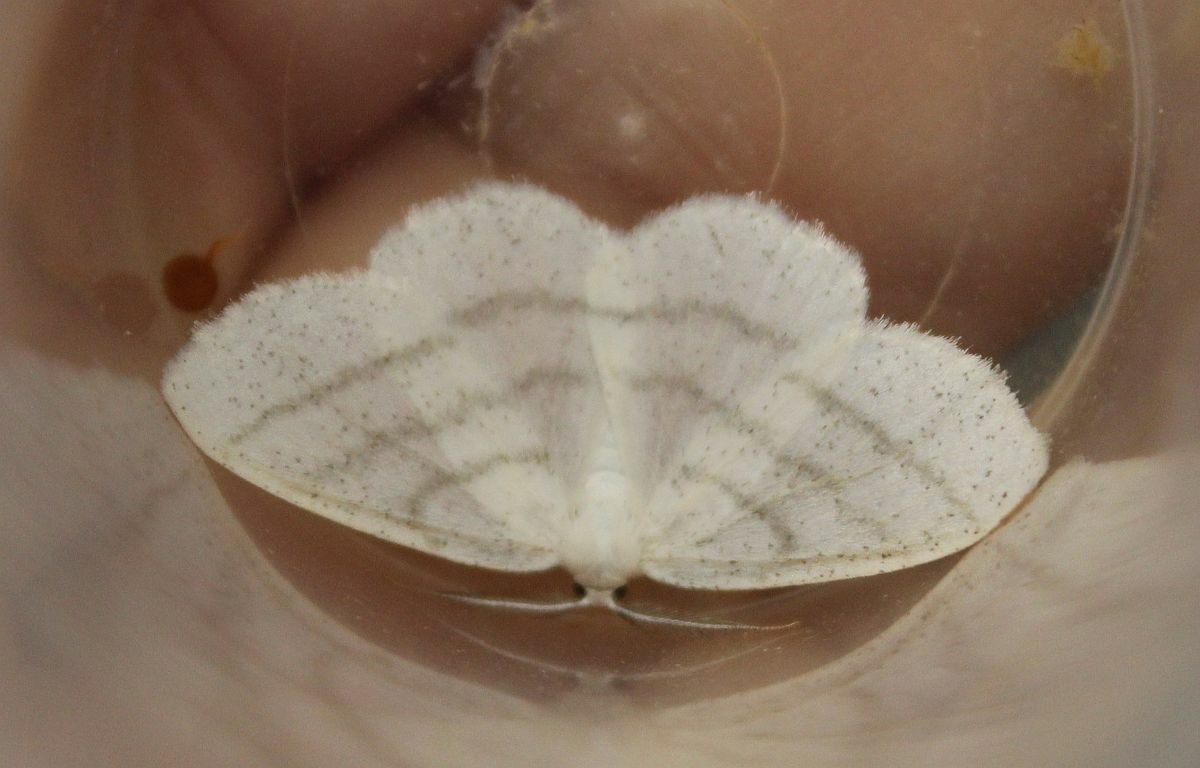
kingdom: Animalia
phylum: Arthropoda
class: Insecta
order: Lepidoptera
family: Geometridae
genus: Cabera
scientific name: Cabera pusaria
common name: Common white wave
